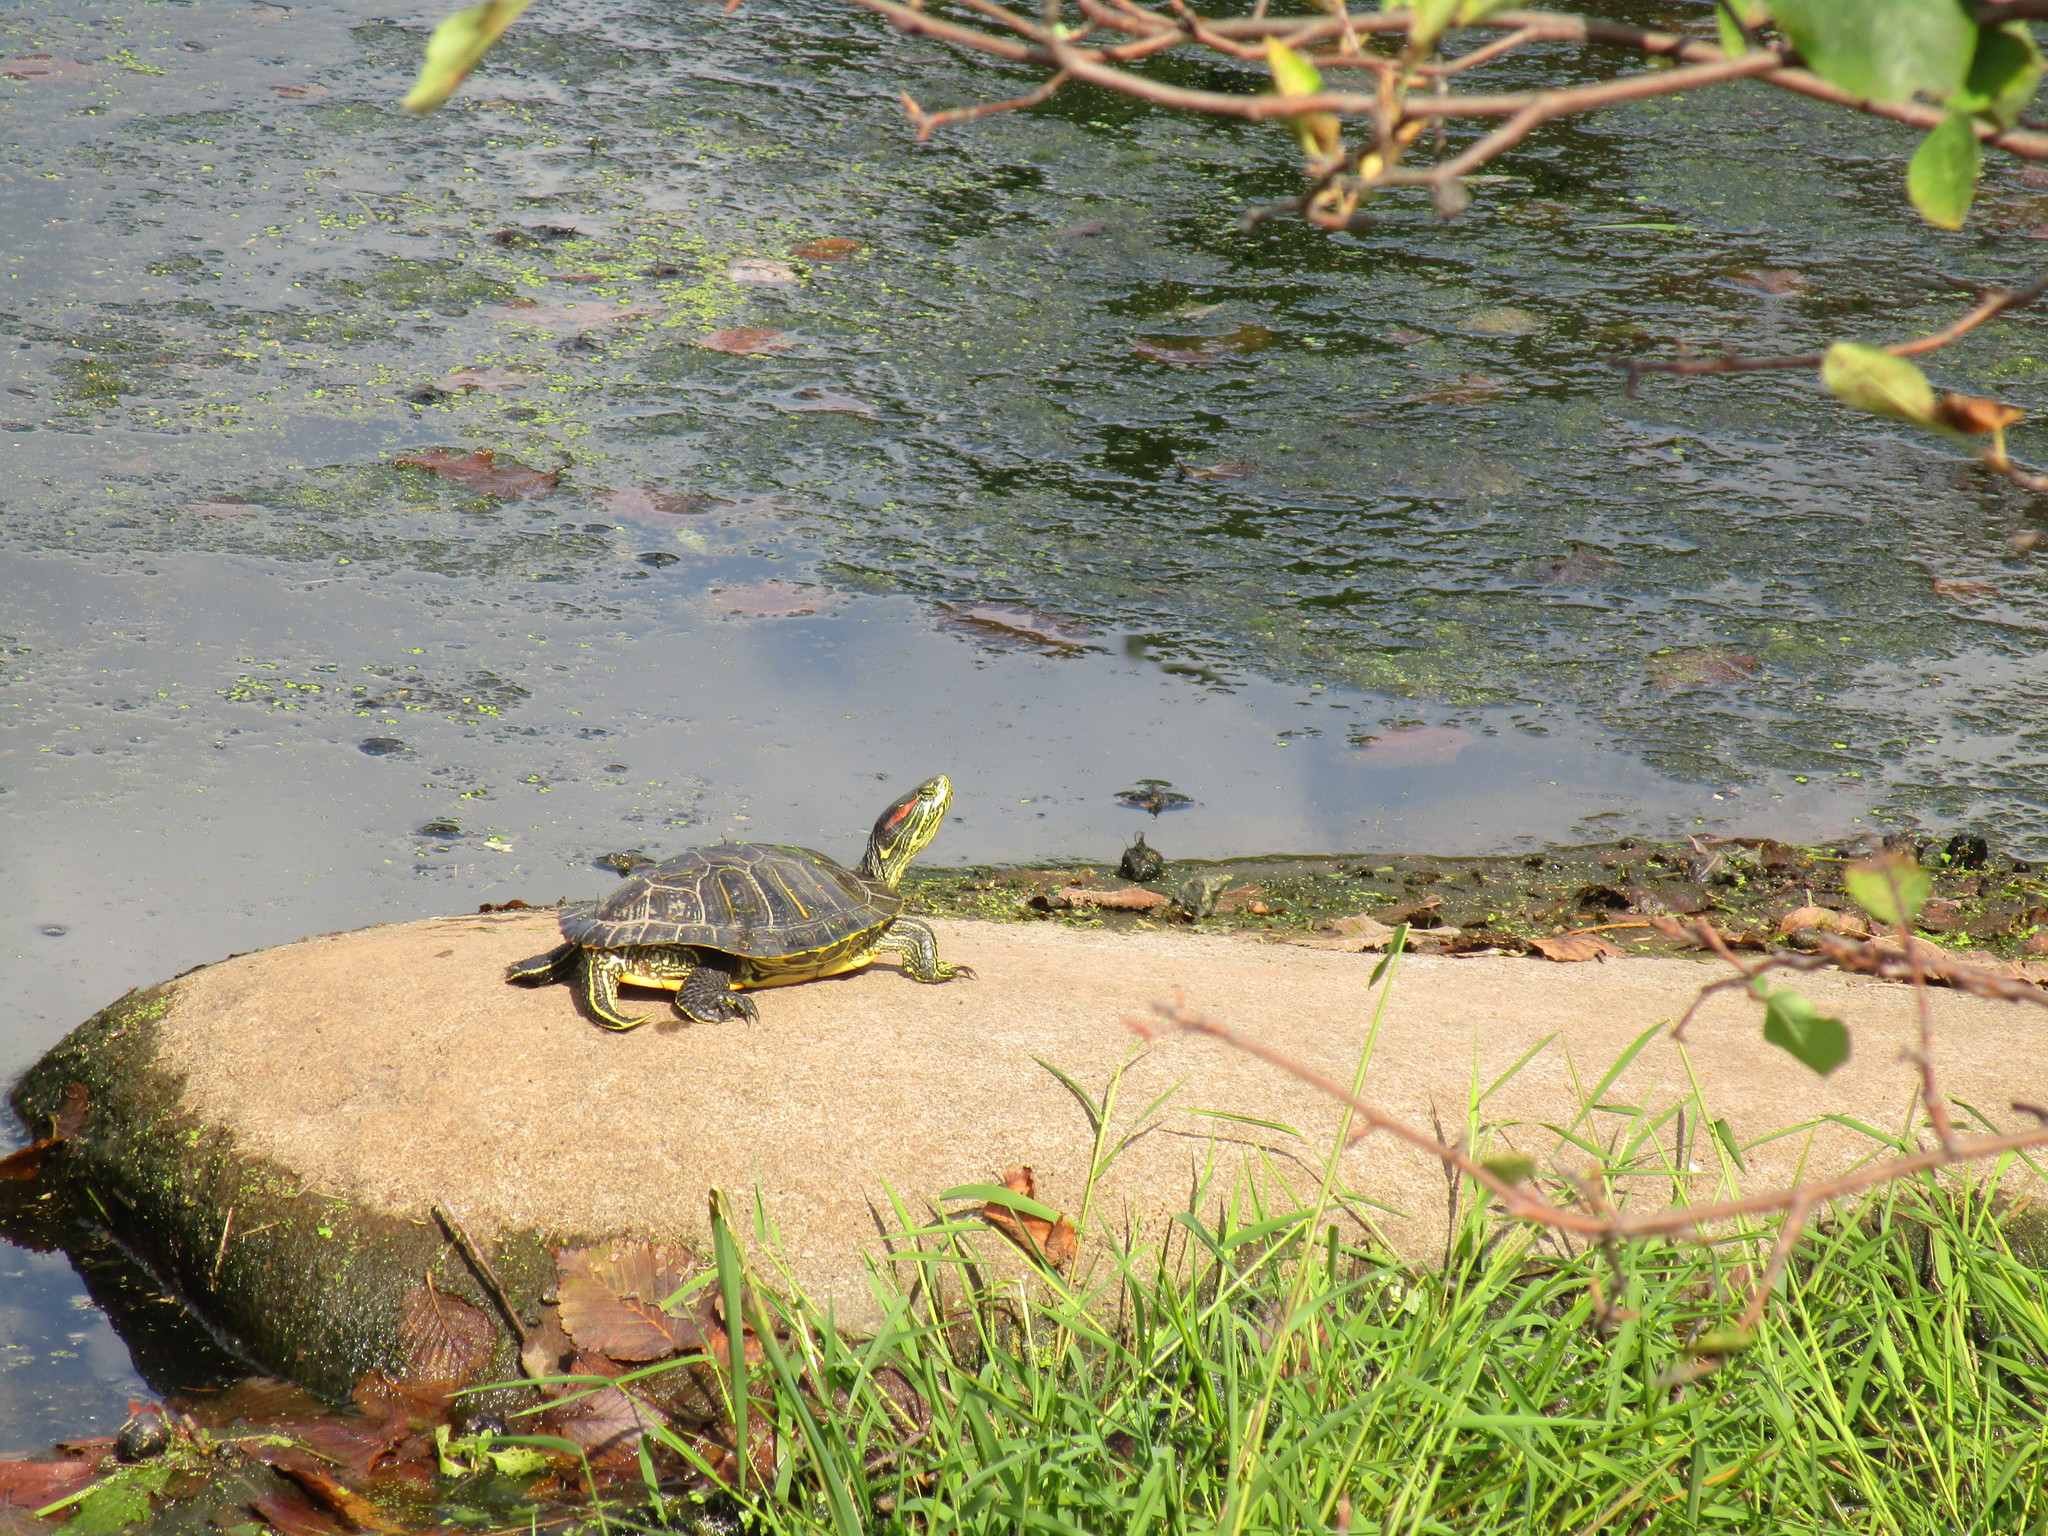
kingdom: Animalia
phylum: Chordata
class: Testudines
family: Emydidae
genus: Trachemys
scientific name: Trachemys scripta
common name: Slider
